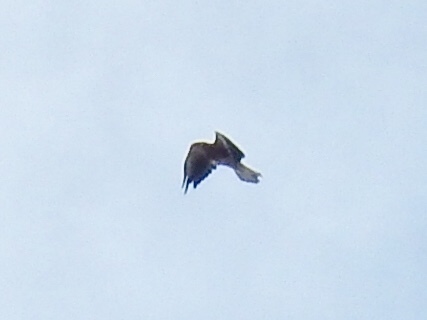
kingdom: Animalia
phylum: Chordata
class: Aves
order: Accipitriformes
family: Accipitridae
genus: Buteo
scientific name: Buteo swainsoni
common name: Swainson's hawk
